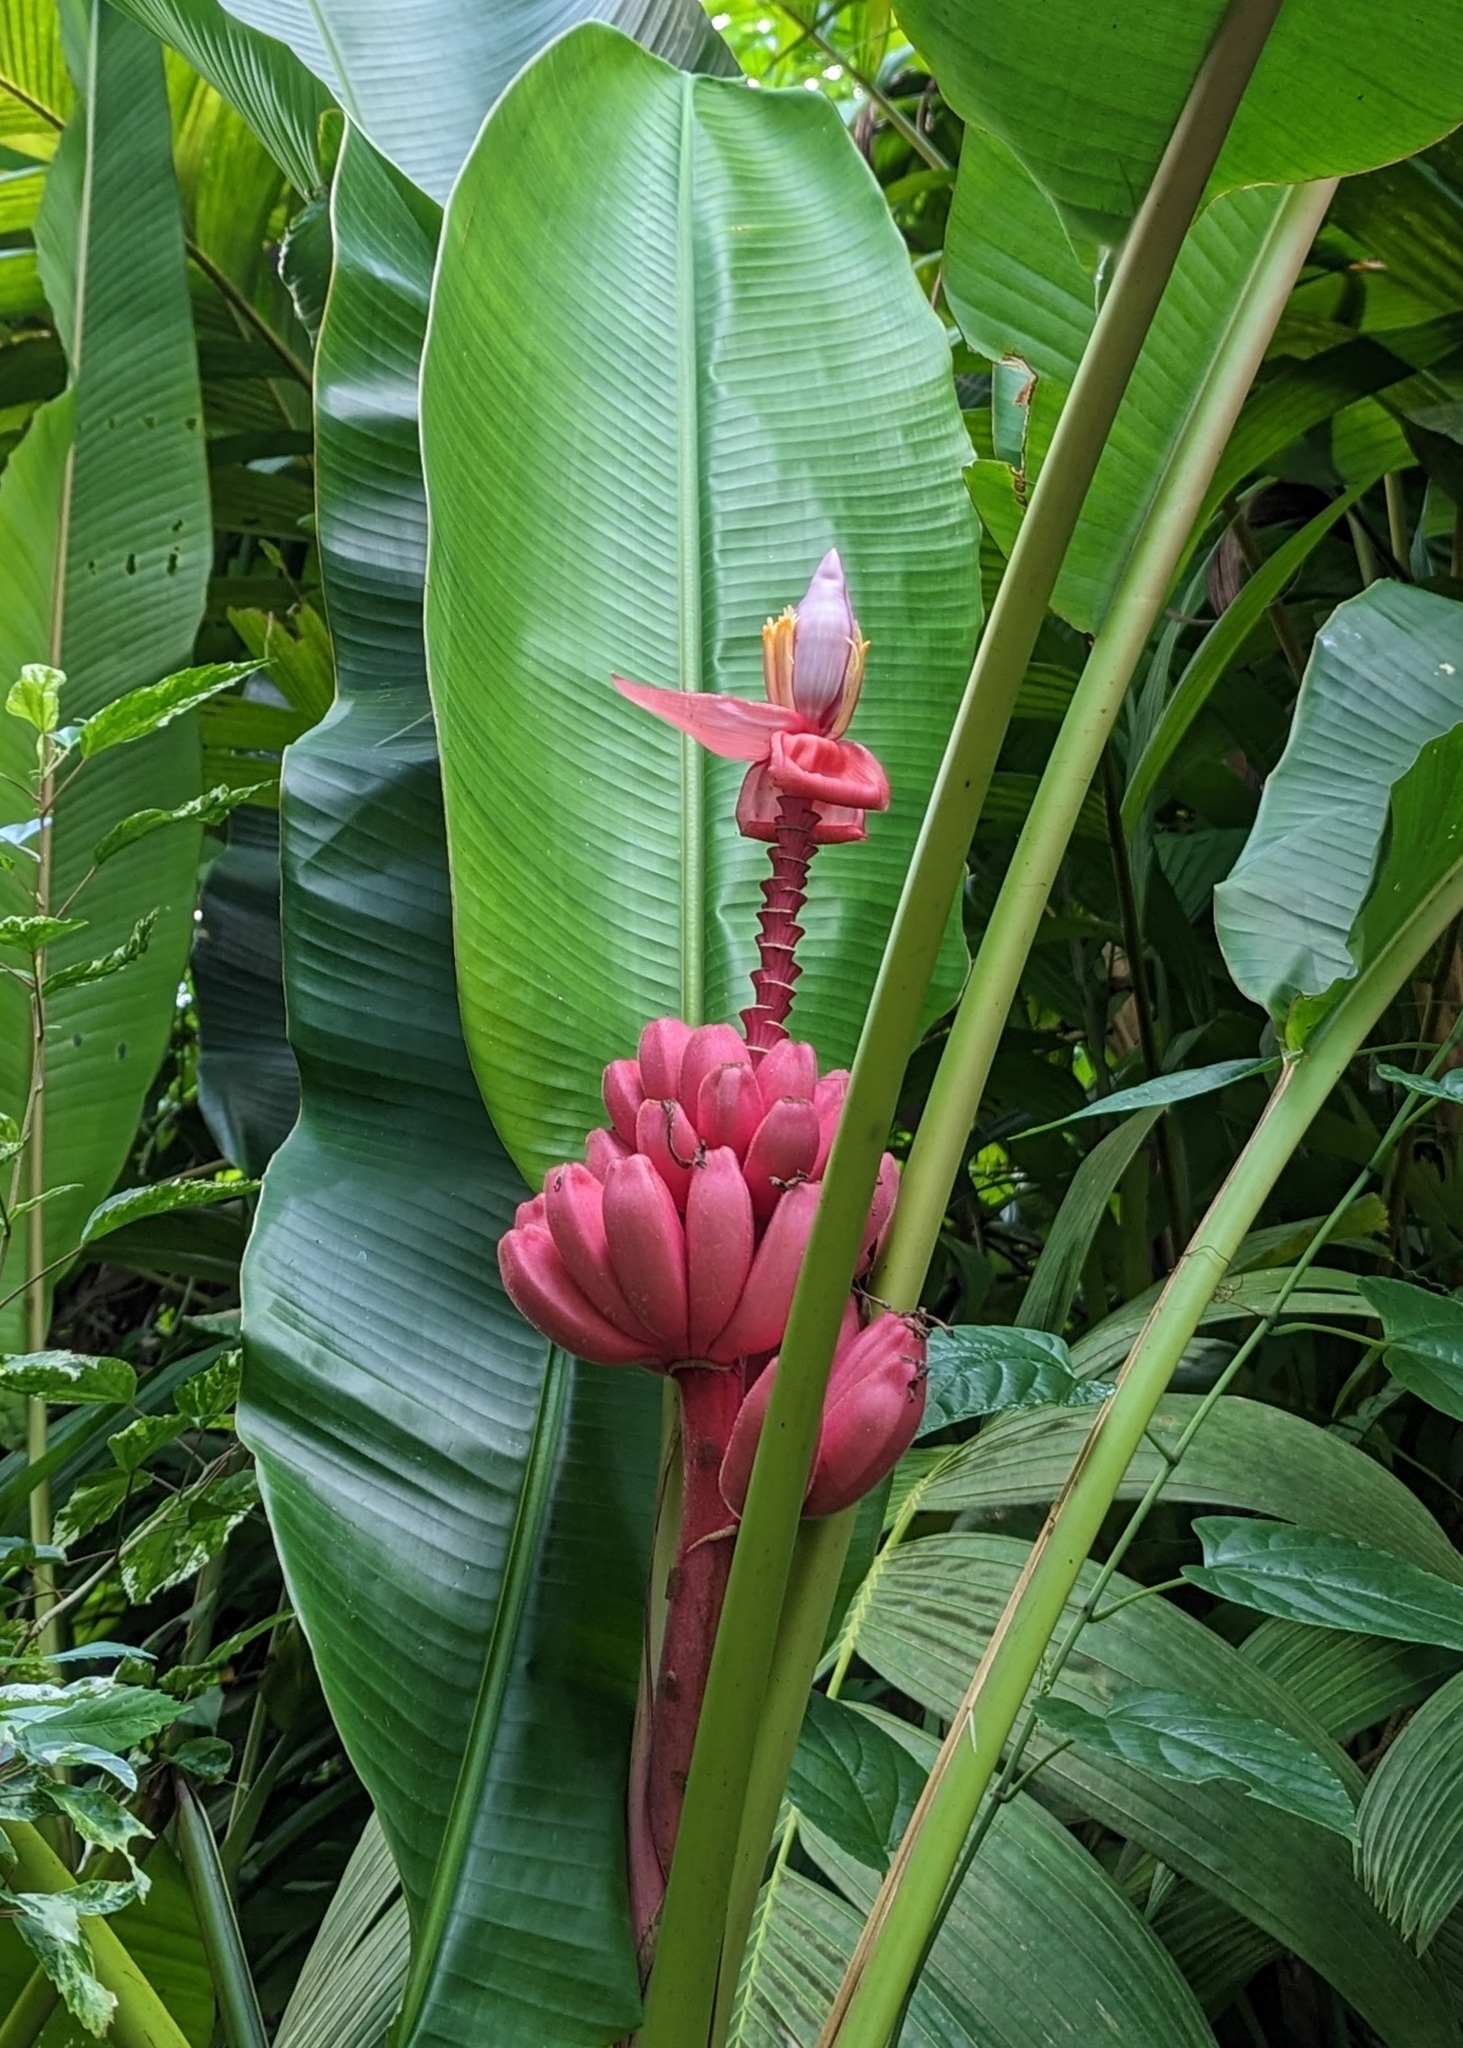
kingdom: Plantae
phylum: Tracheophyta
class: Liliopsida
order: Zingiberales
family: Musaceae
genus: Musa
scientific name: Musa velutina
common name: Pink velvet banana
